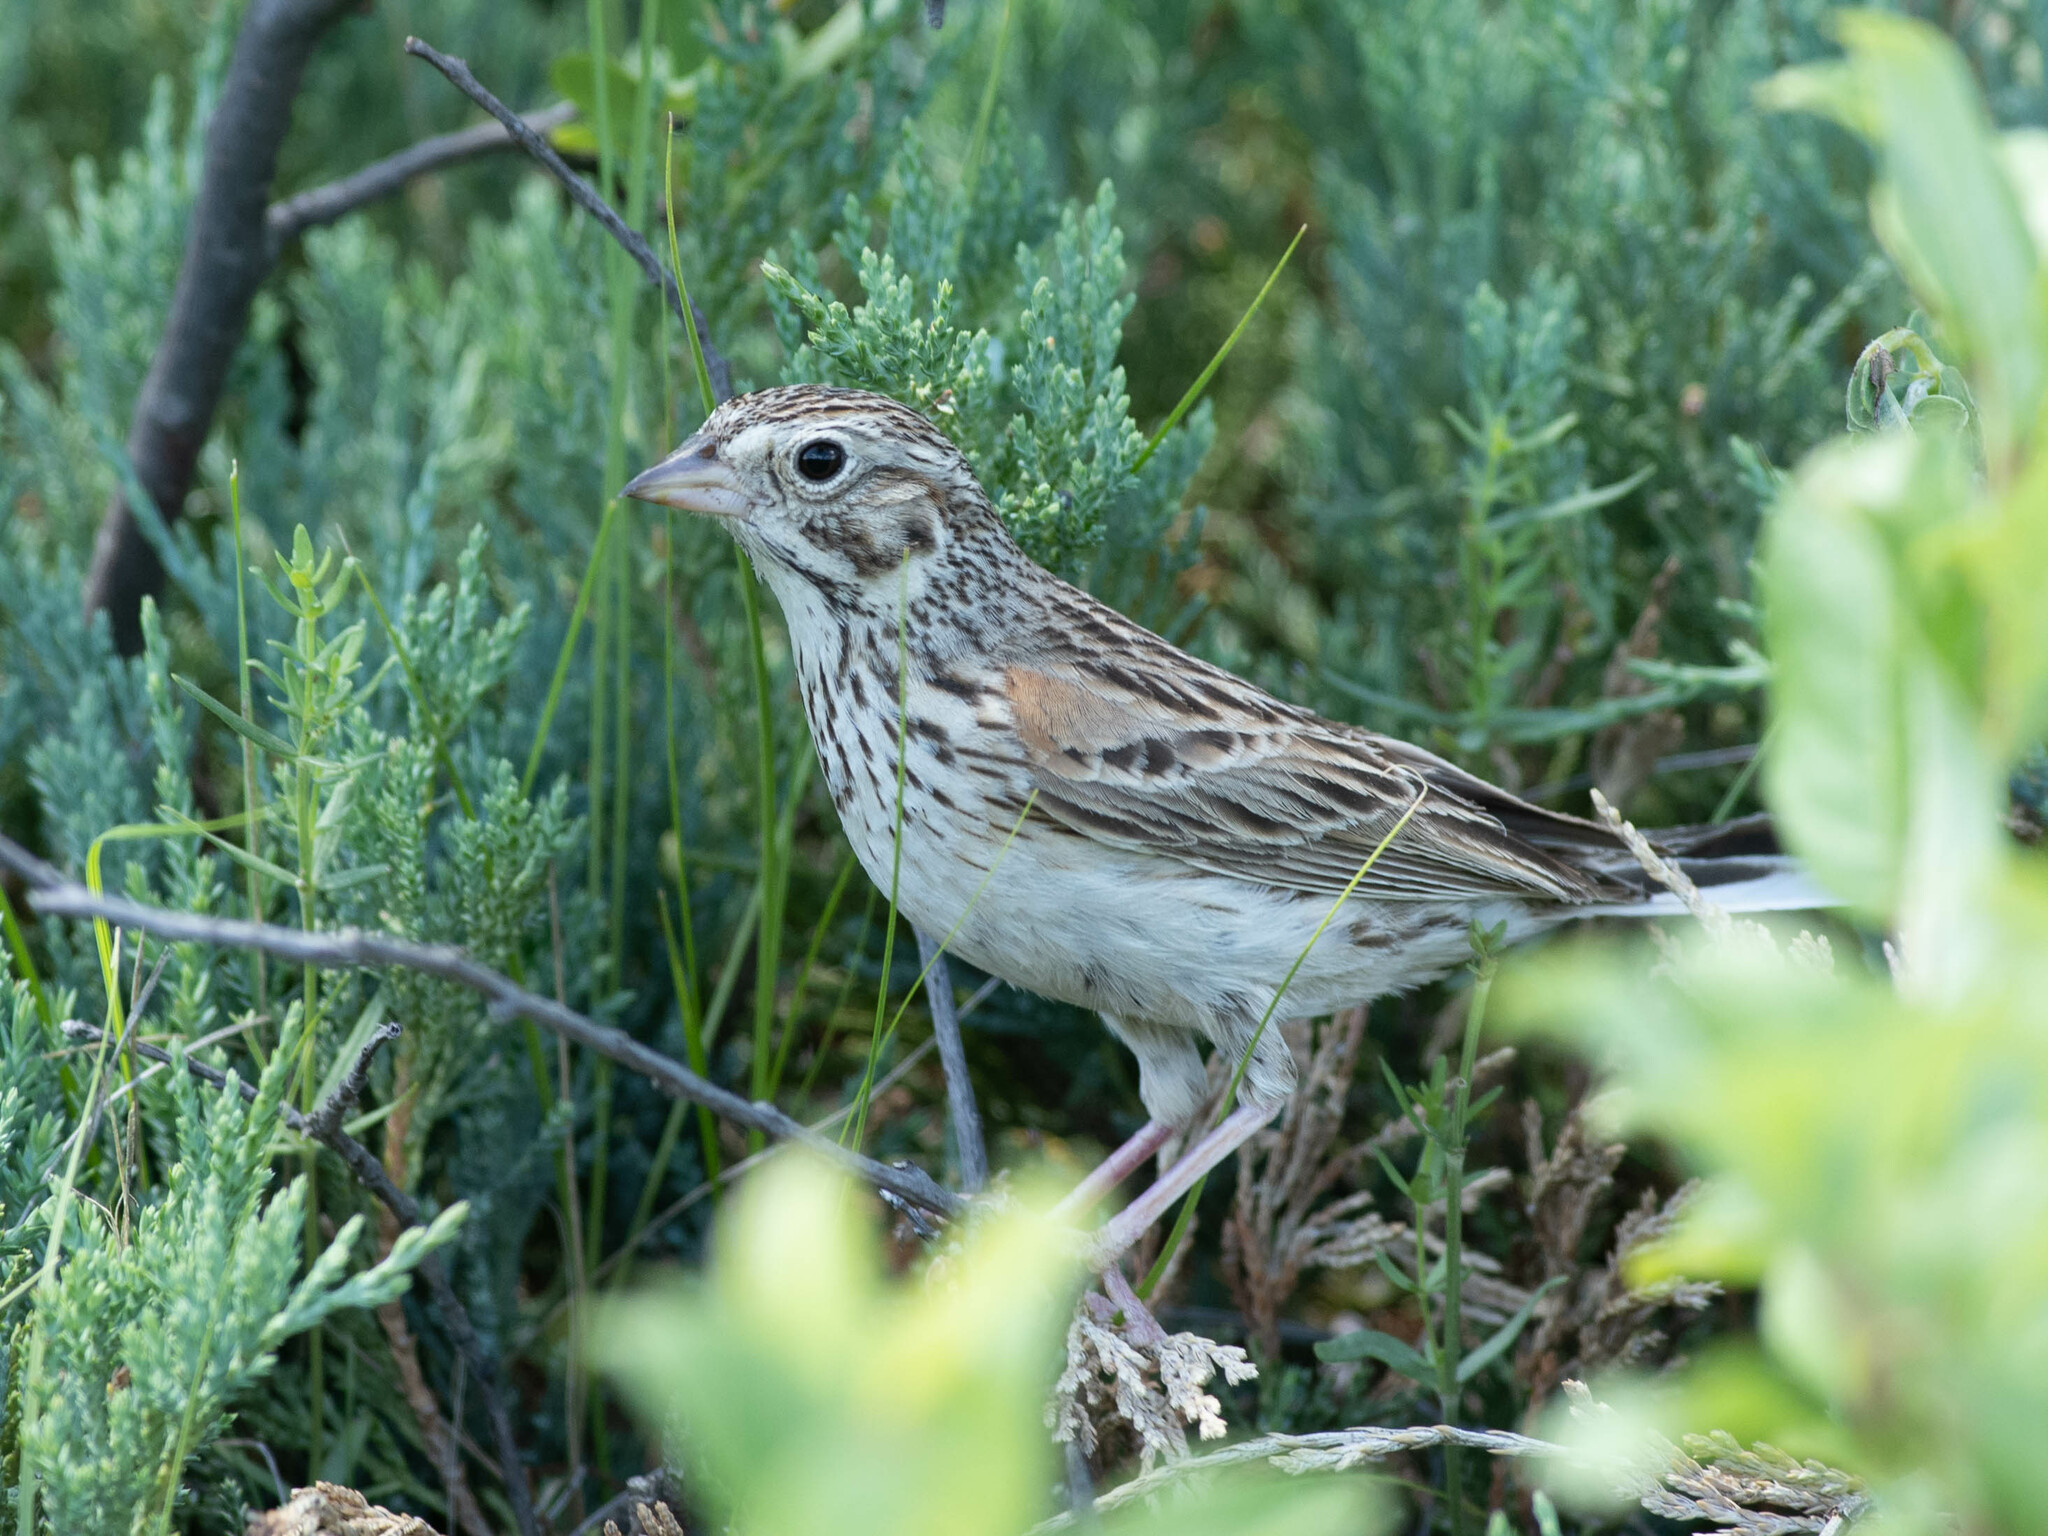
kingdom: Animalia
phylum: Chordata
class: Aves
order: Passeriformes
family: Passerellidae
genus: Pooecetes
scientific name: Pooecetes gramineus
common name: Vesper sparrow
